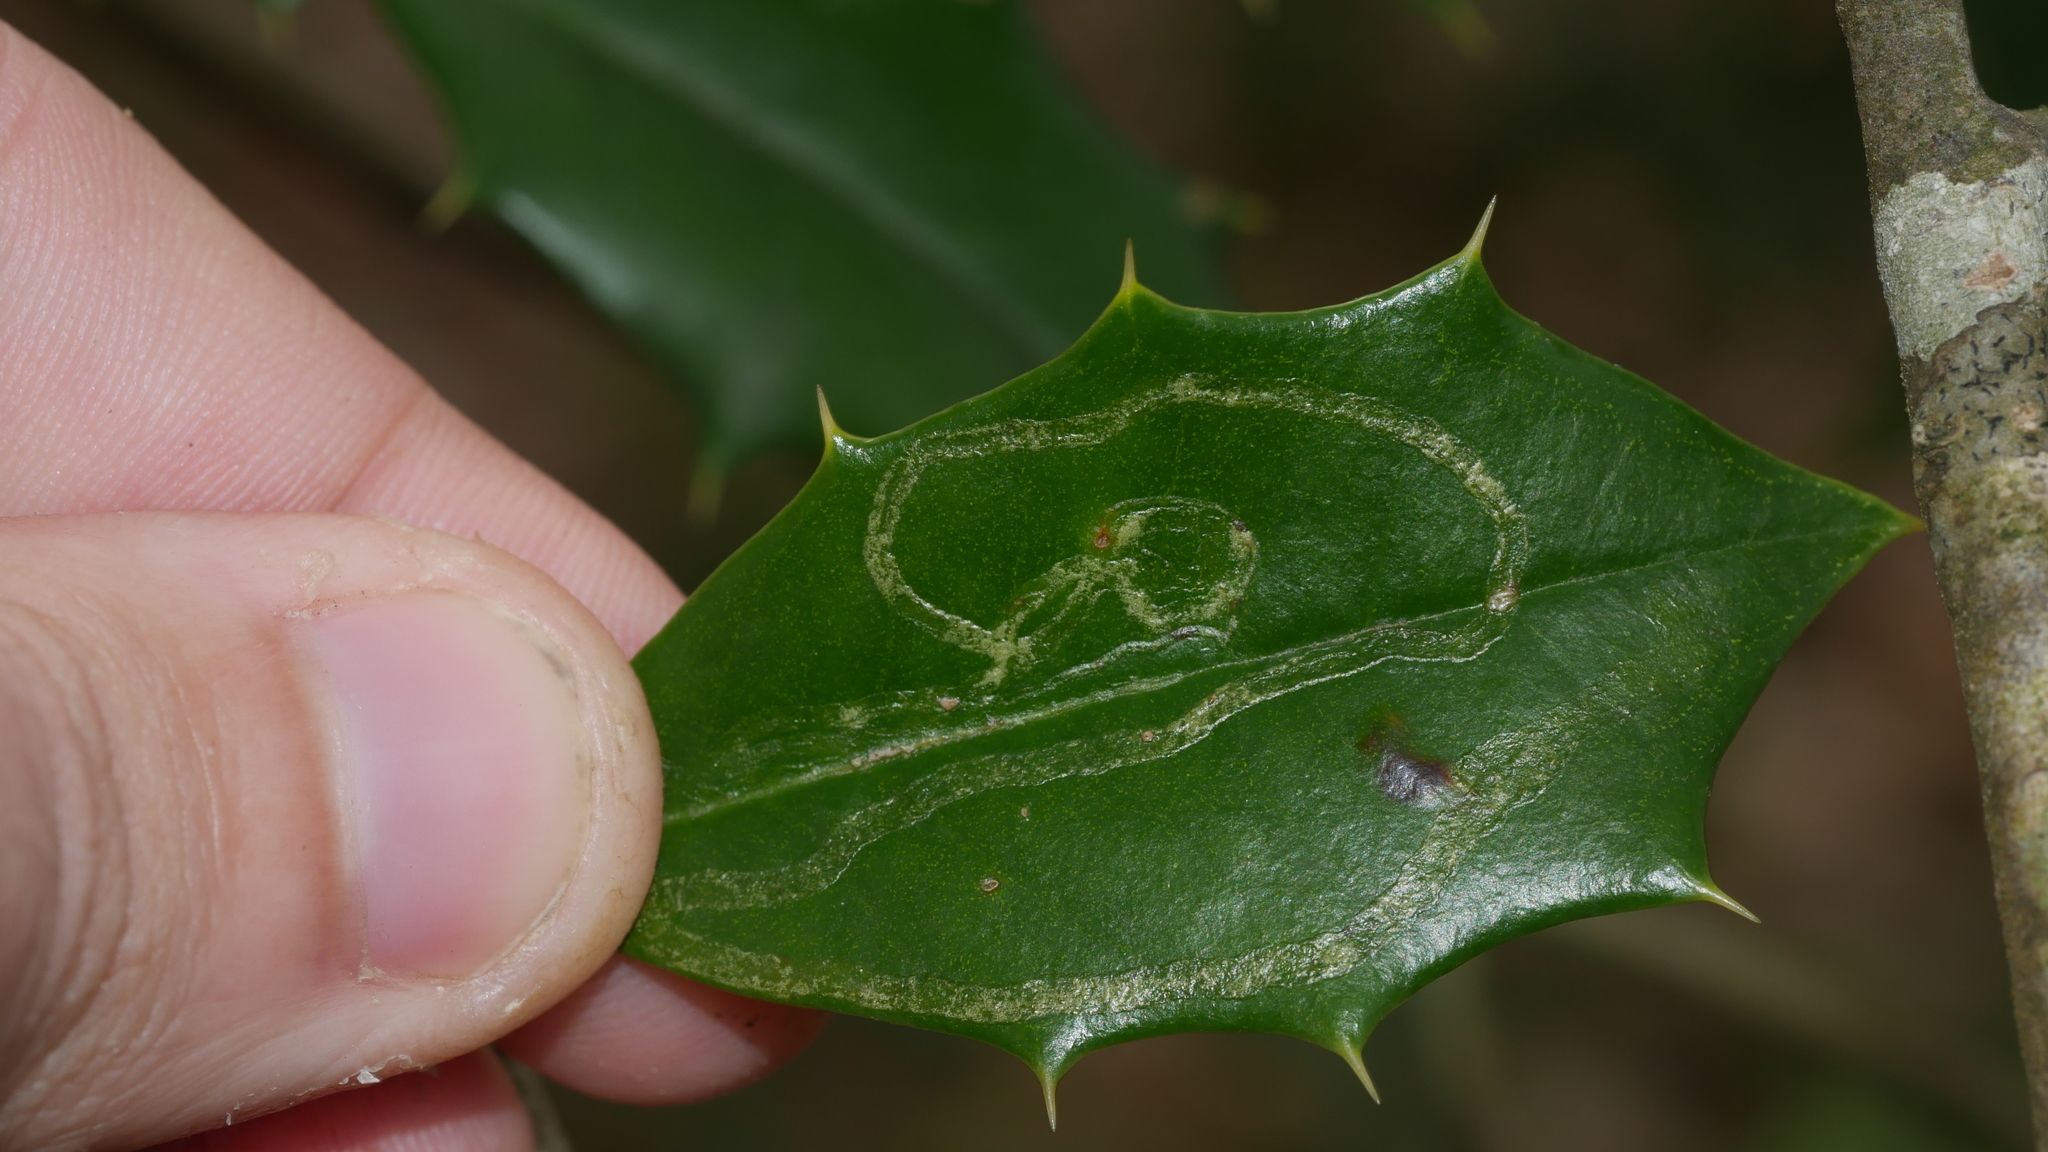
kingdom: Animalia
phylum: Arthropoda
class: Insecta
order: Diptera
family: Agromyzidae
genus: Phytomyza
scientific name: Phytomyza opacae
